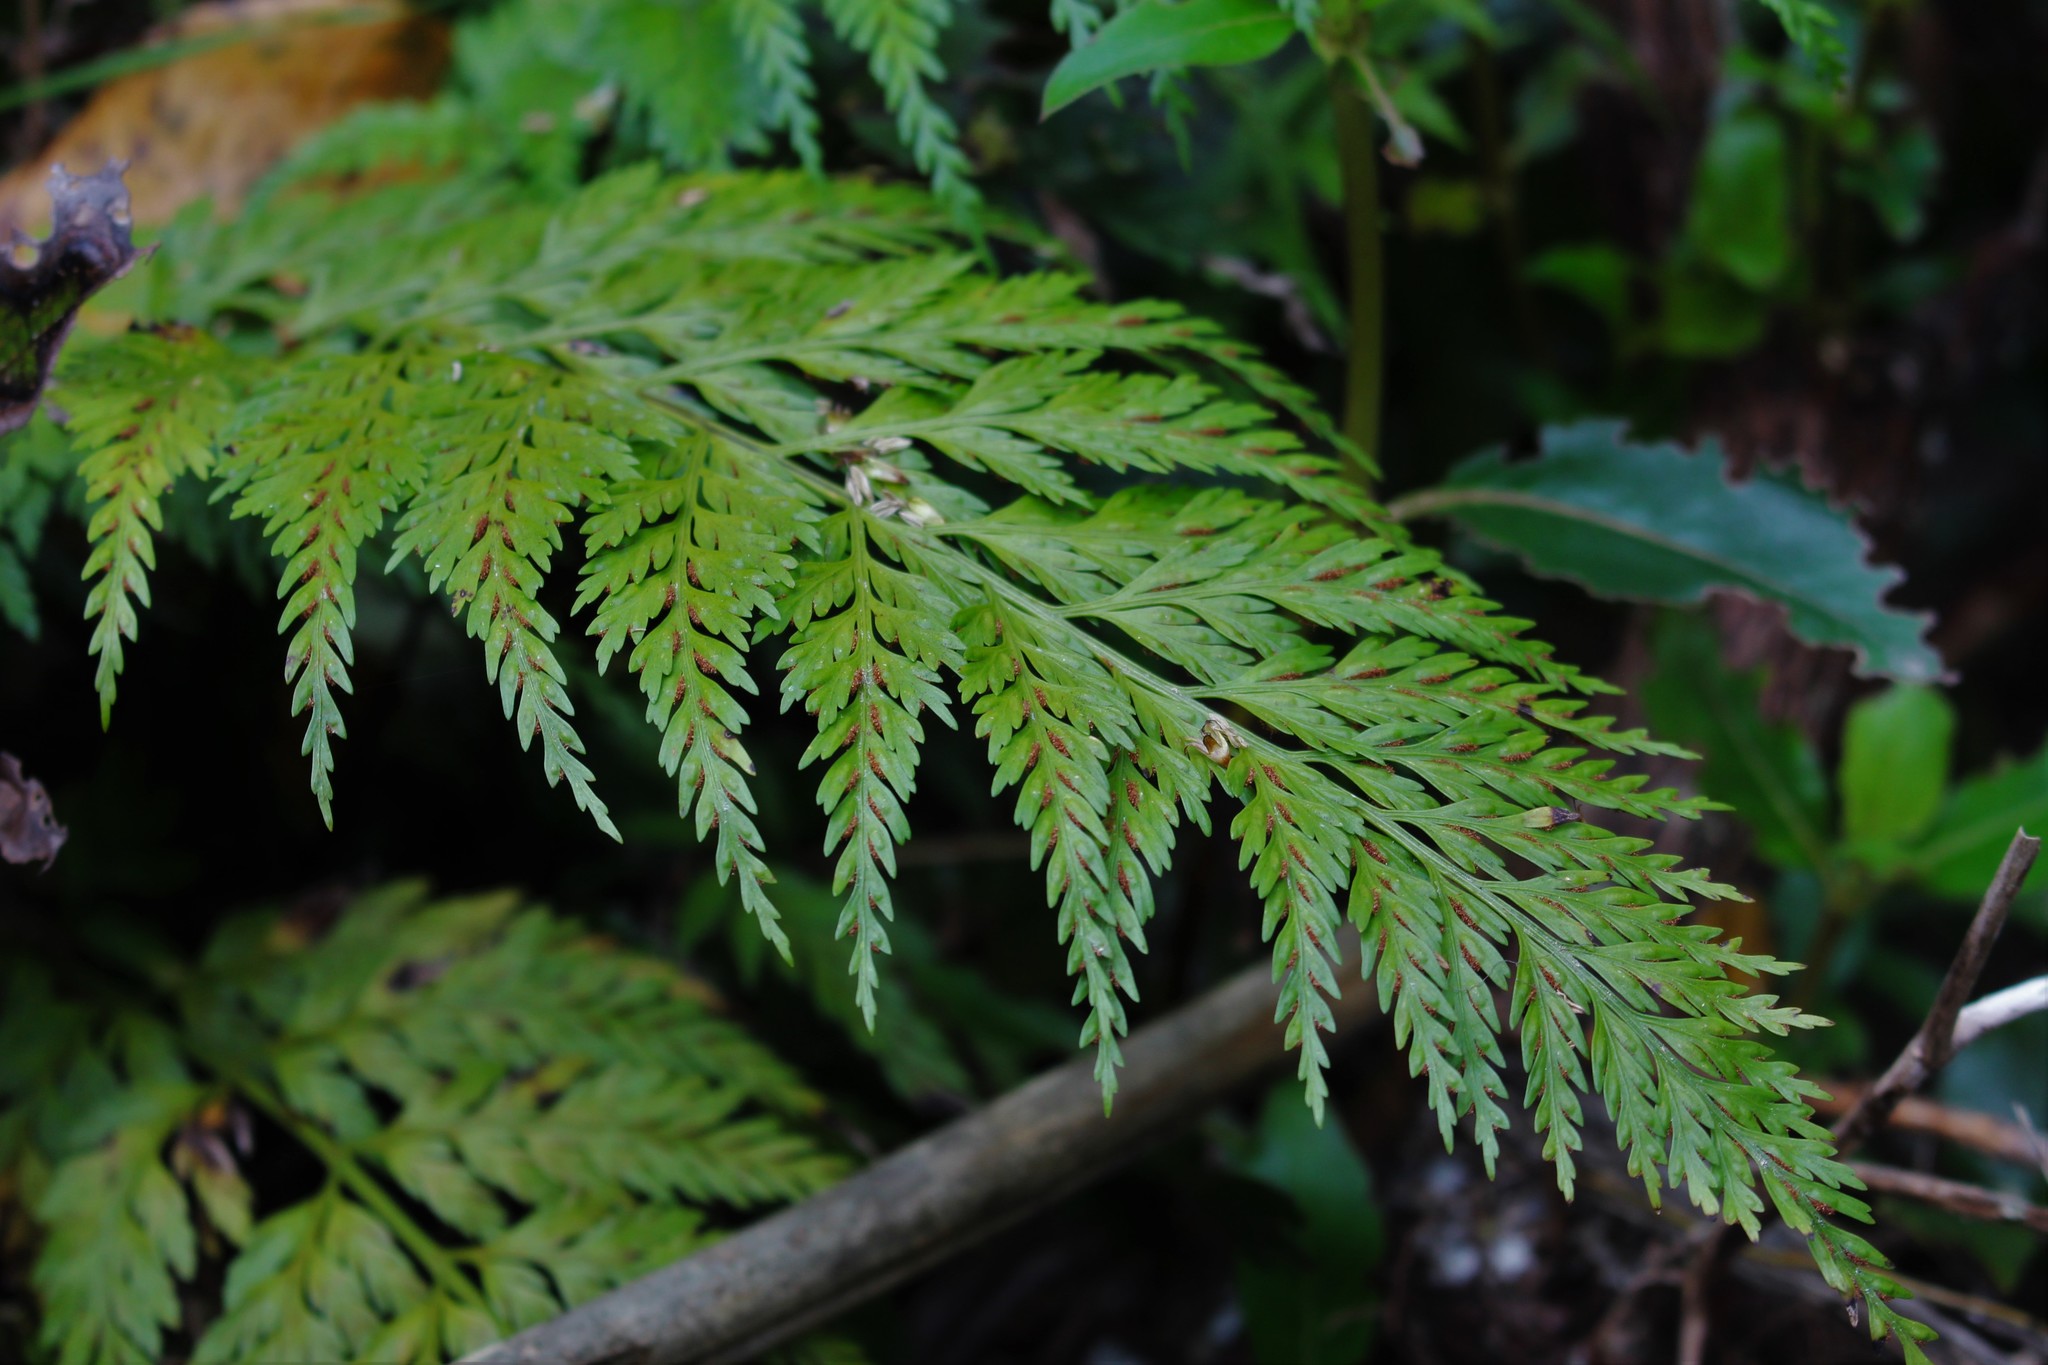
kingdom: Plantae
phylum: Tracheophyta
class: Polypodiopsida
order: Polypodiales
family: Aspleniaceae
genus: Asplenium
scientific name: Asplenium appendiculatum
